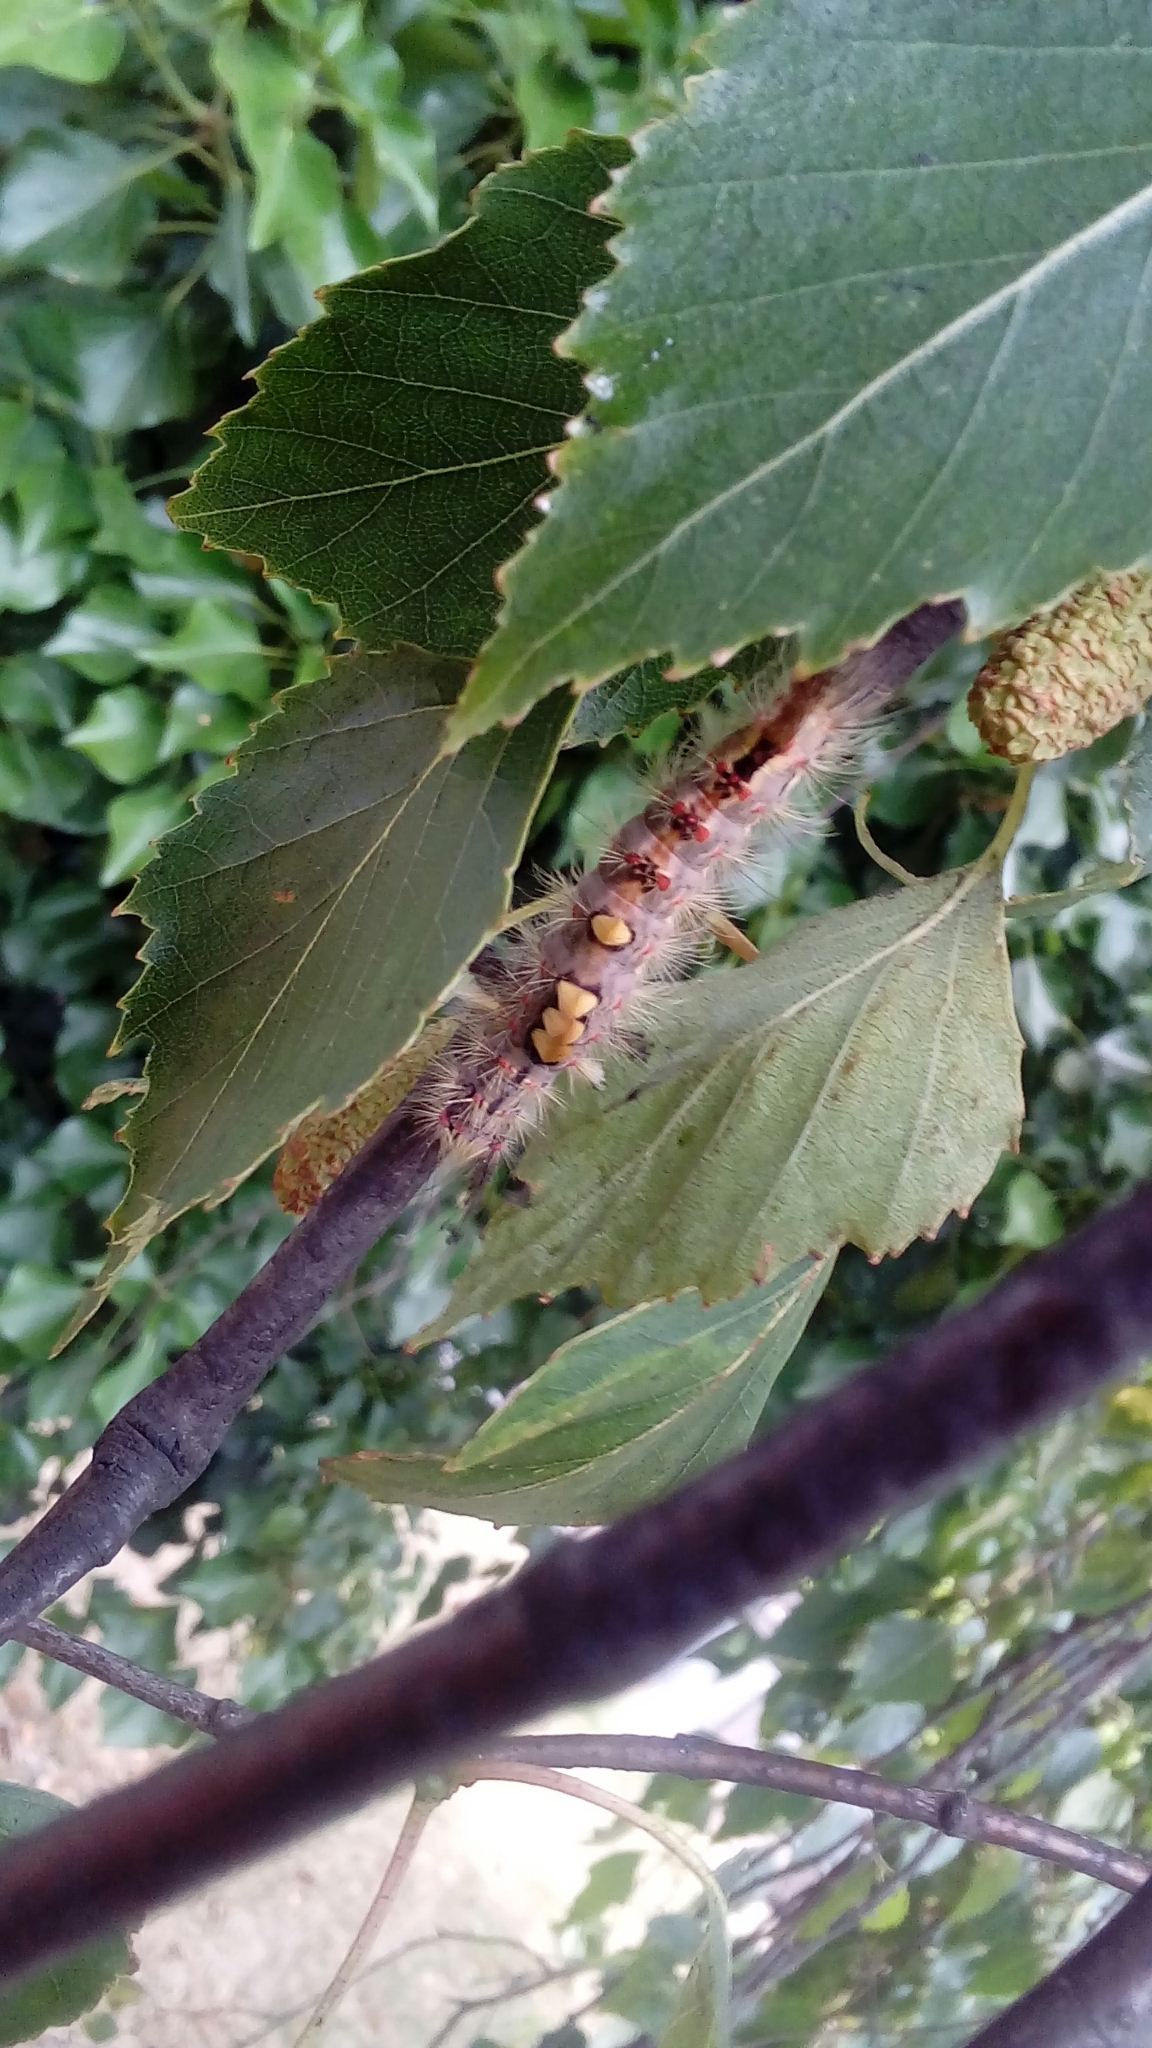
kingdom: Animalia
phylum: Arthropoda
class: Insecta
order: Lepidoptera
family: Erebidae
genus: Orgyia
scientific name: Orgyia antiqua
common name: Vapourer
